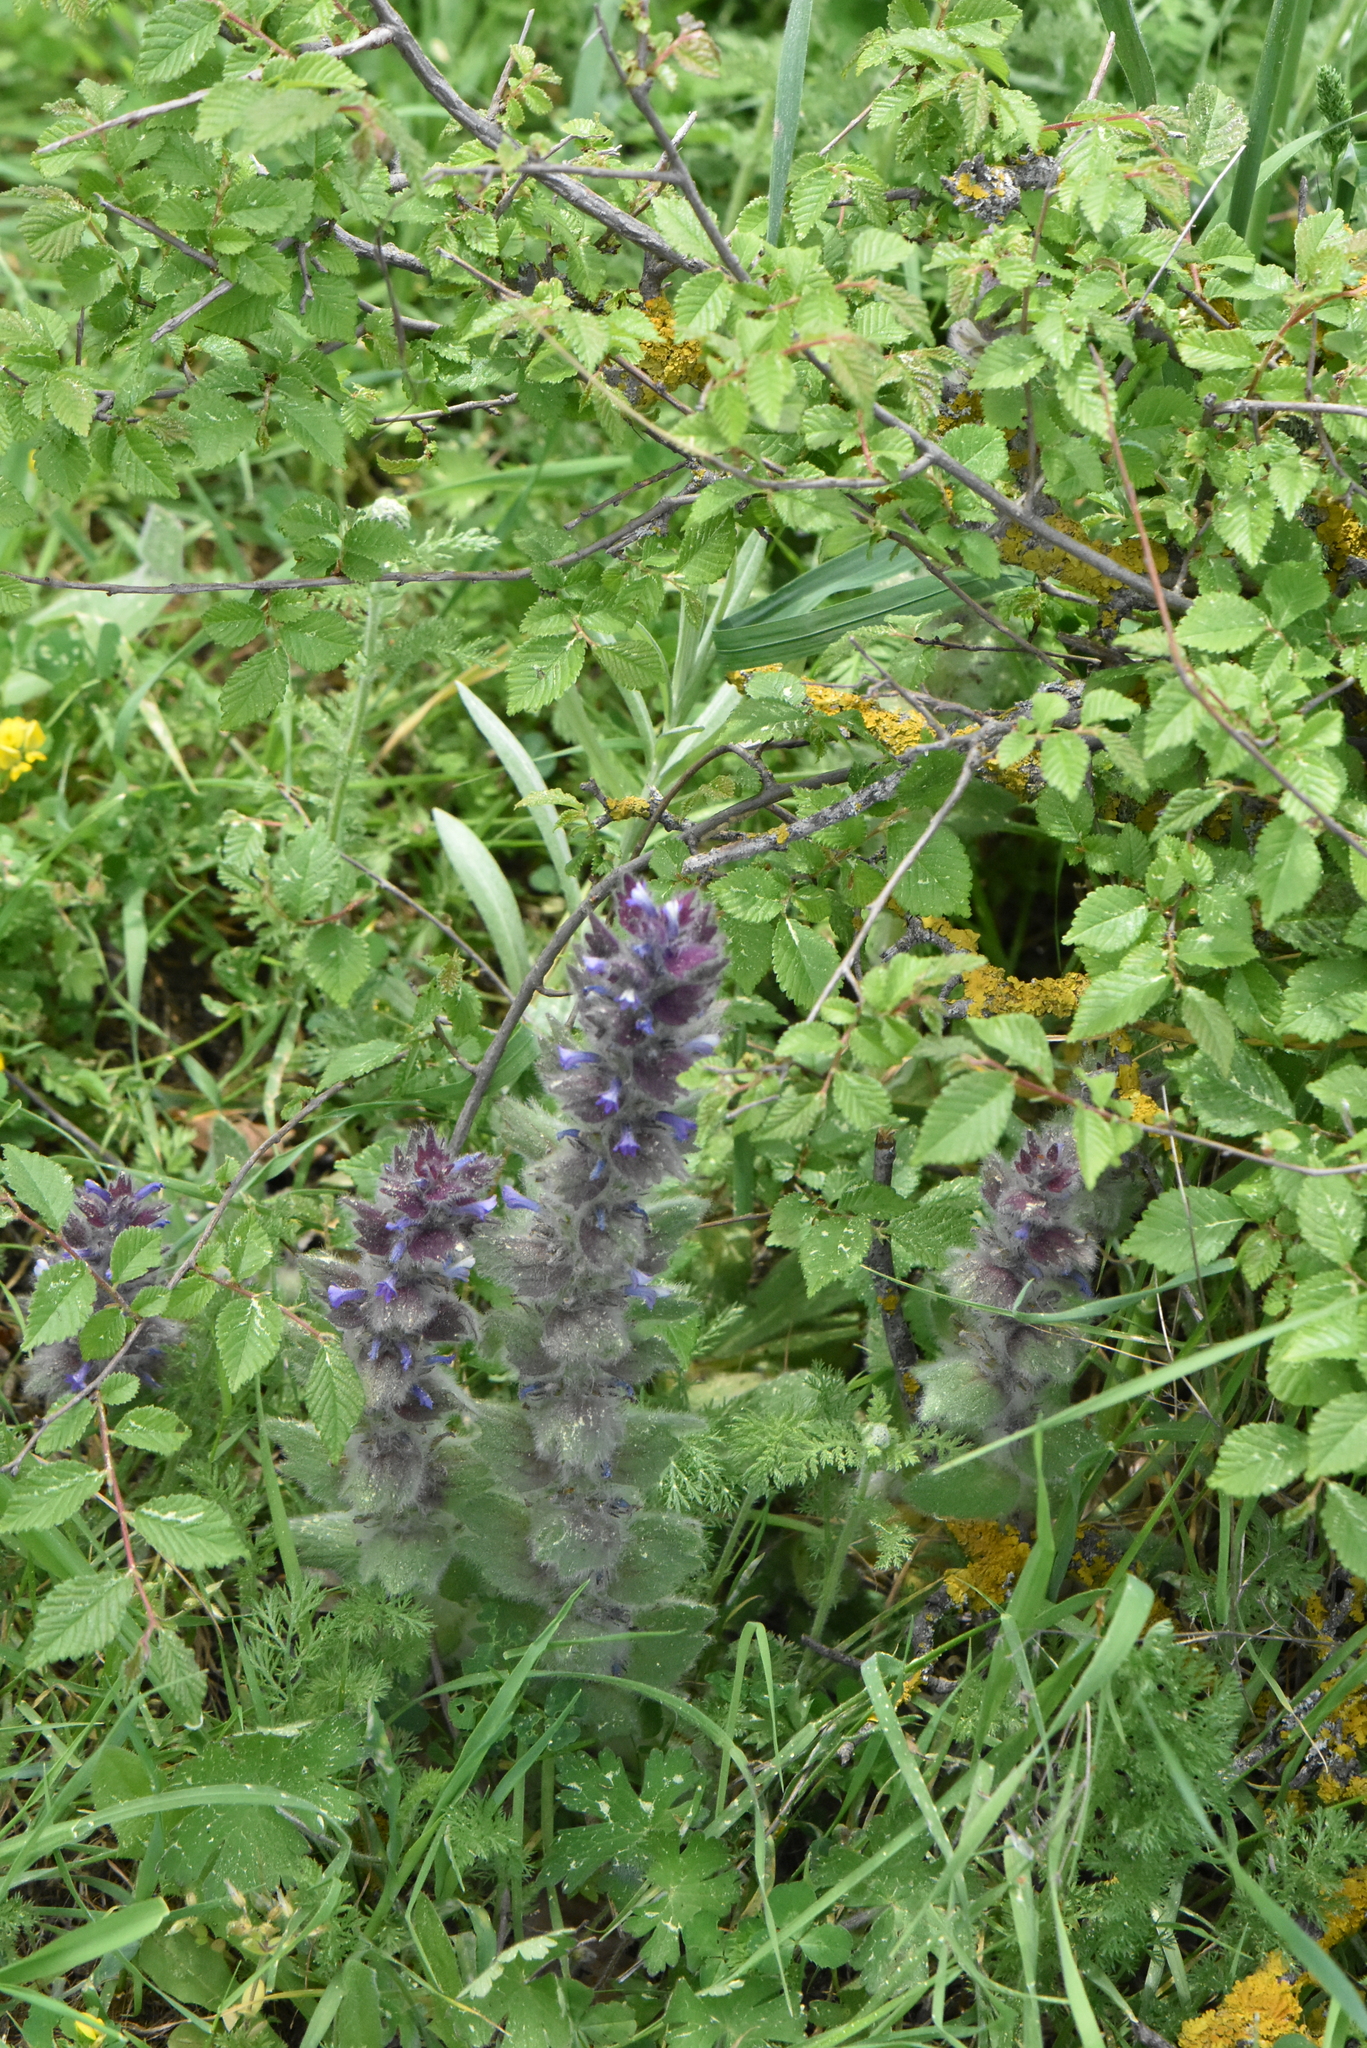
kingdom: Plantae
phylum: Tracheophyta
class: Magnoliopsida
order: Lamiales
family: Lamiaceae
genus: Ajuga
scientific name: Ajuga orientalis
